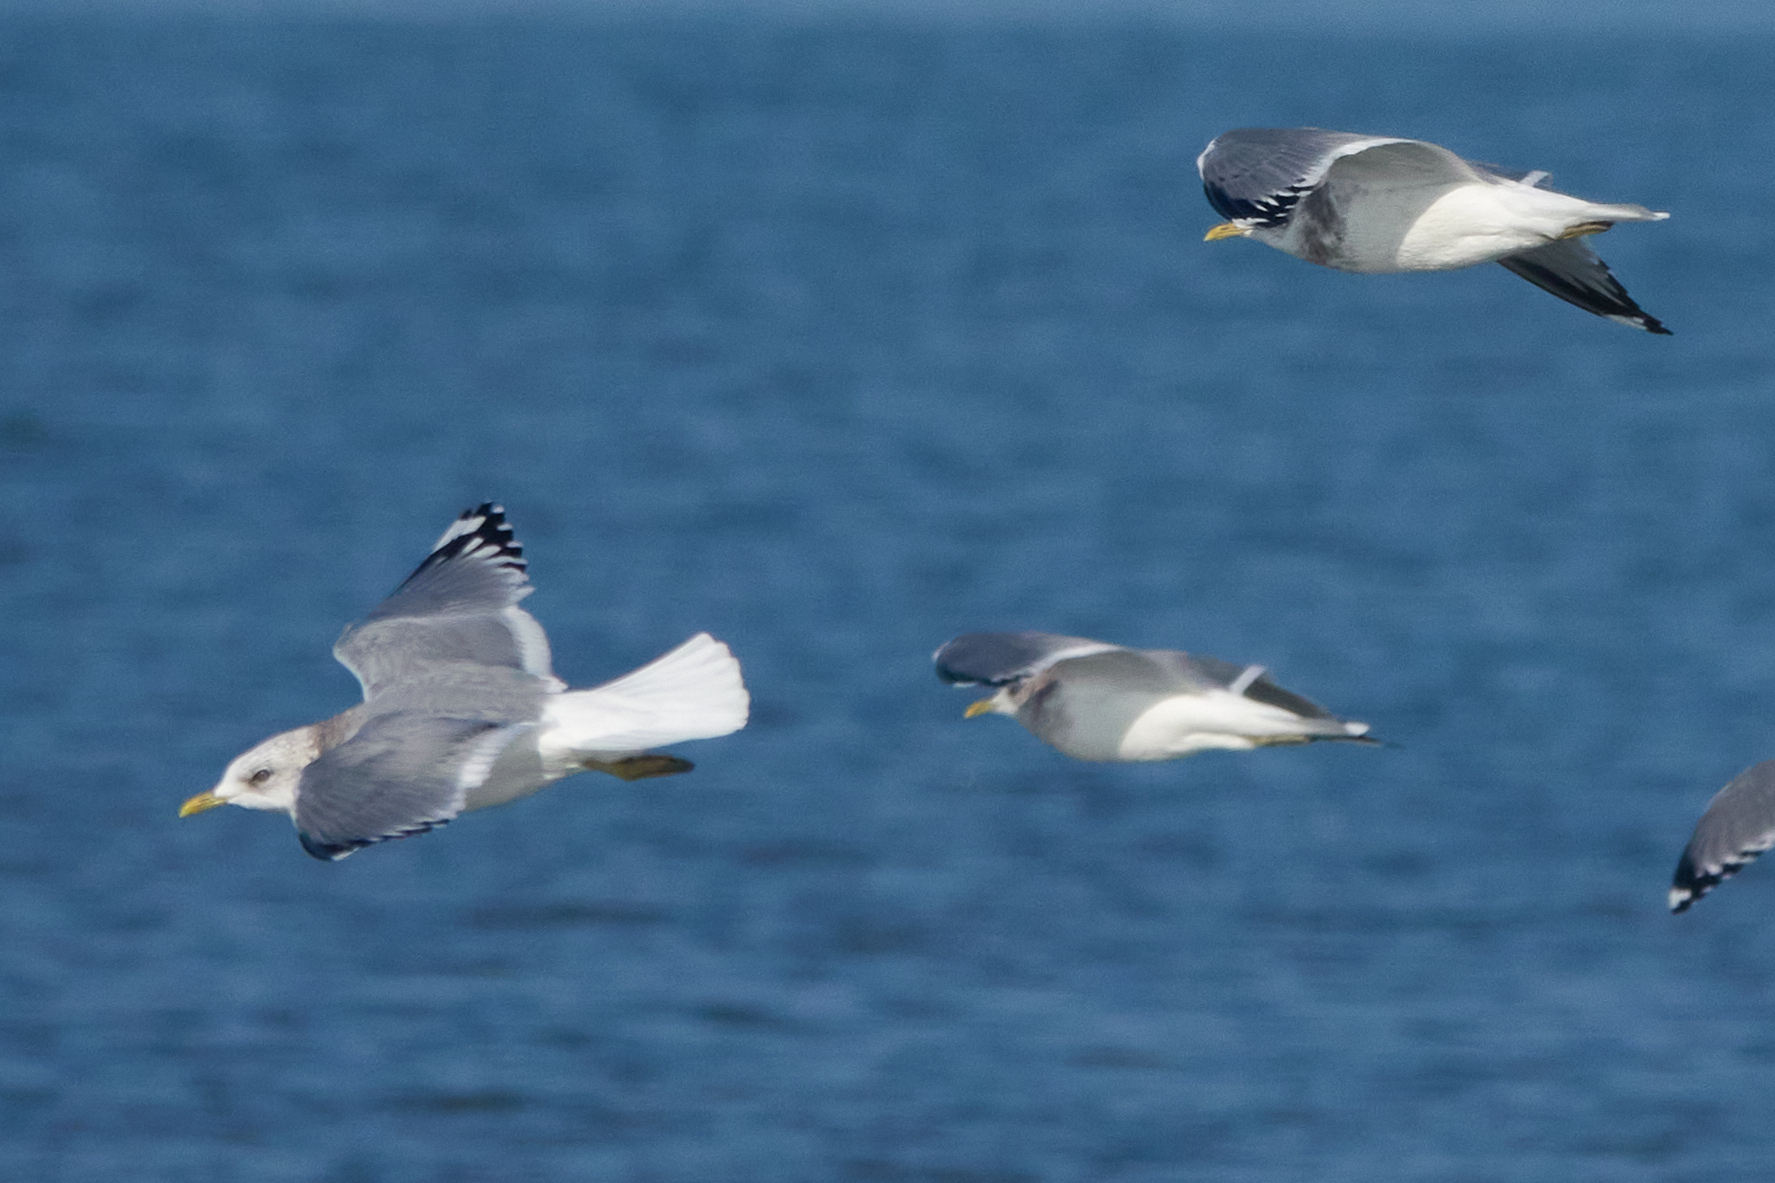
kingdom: Animalia
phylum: Chordata
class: Aves
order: Charadriiformes
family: Laridae
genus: Larus
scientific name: Larus brachyrhynchus
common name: Short-billed gull
